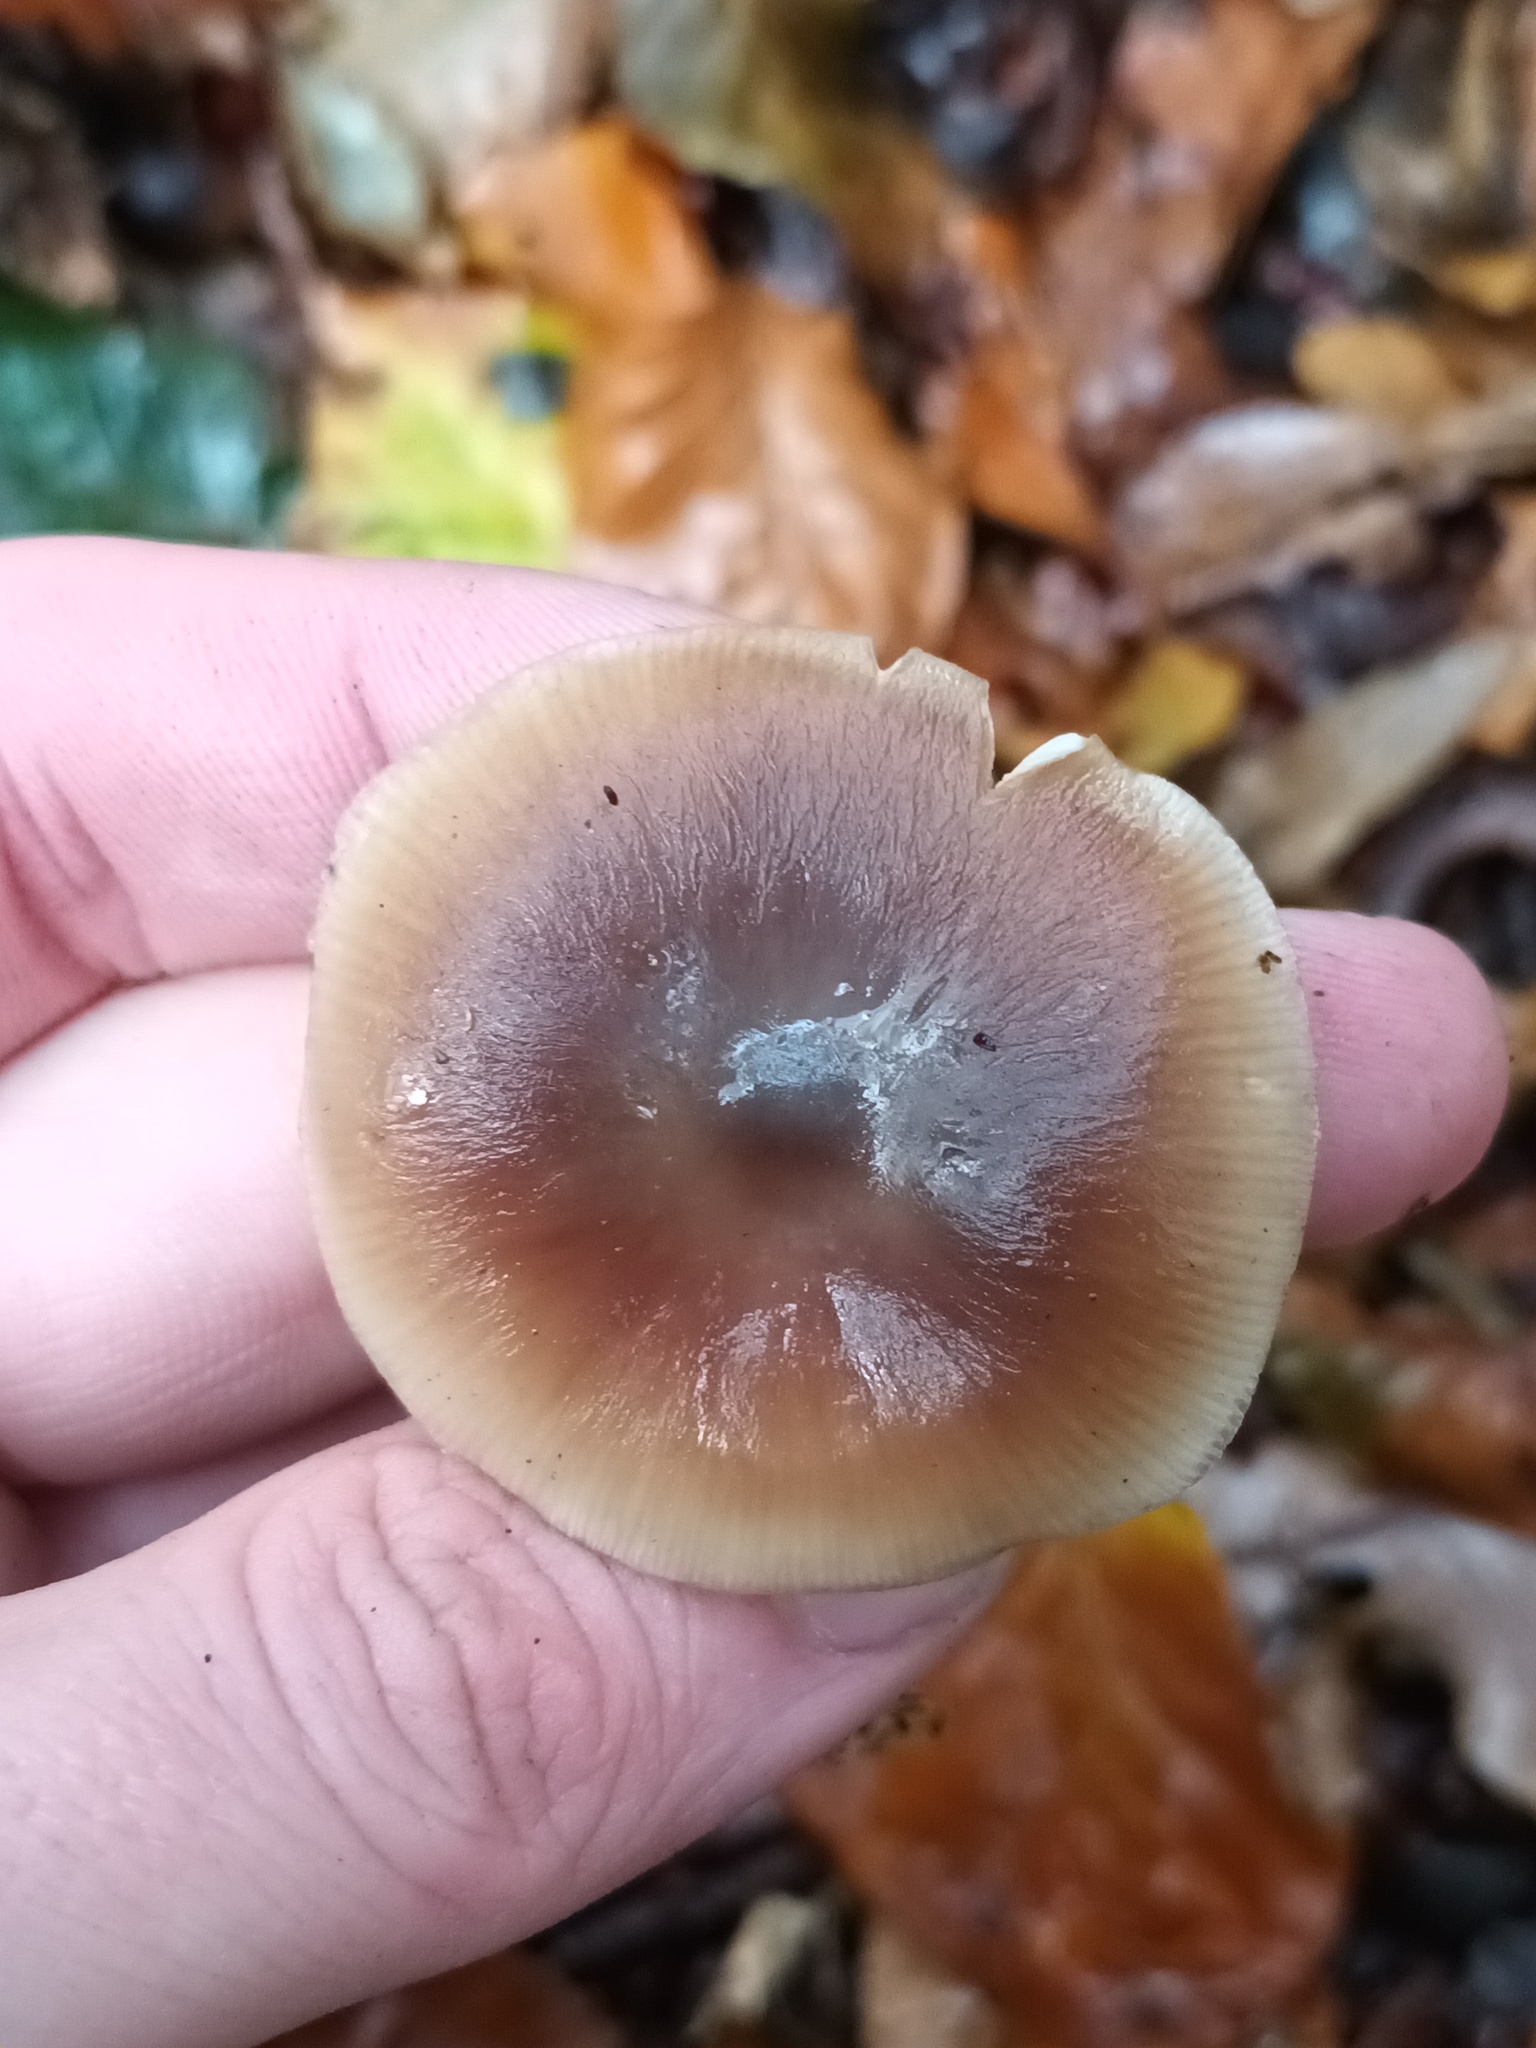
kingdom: Fungi
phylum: Basidiomycota
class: Agaricomycetes
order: Agaricales
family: Omphalotaceae
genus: Rhodocollybia
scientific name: Rhodocollybia butyracea
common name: Butter cap
